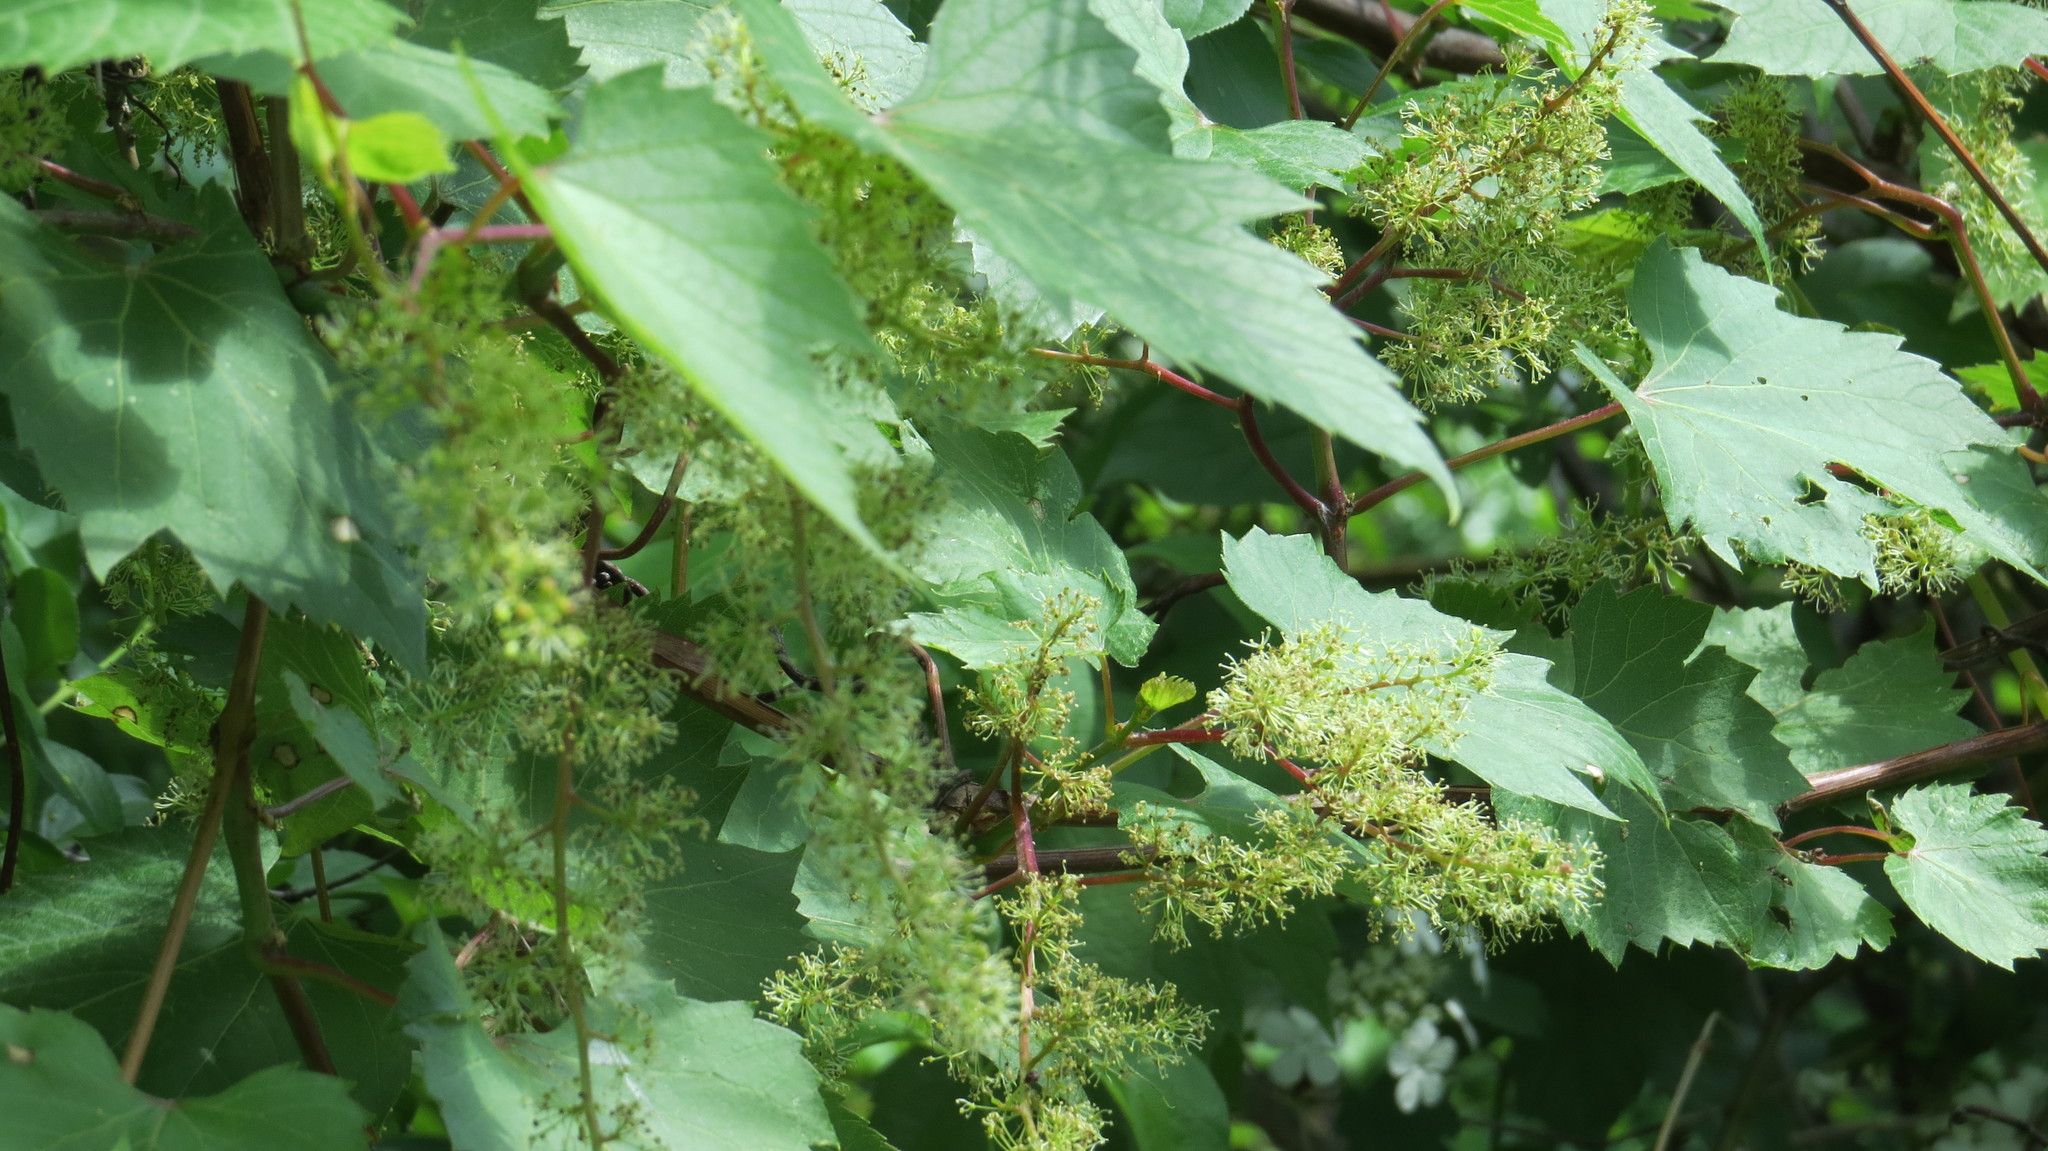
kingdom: Plantae
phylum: Tracheophyta
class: Magnoliopsida
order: Vitales
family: Vitaceae
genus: Vitis
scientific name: Vitis riparia
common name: Frost grape
